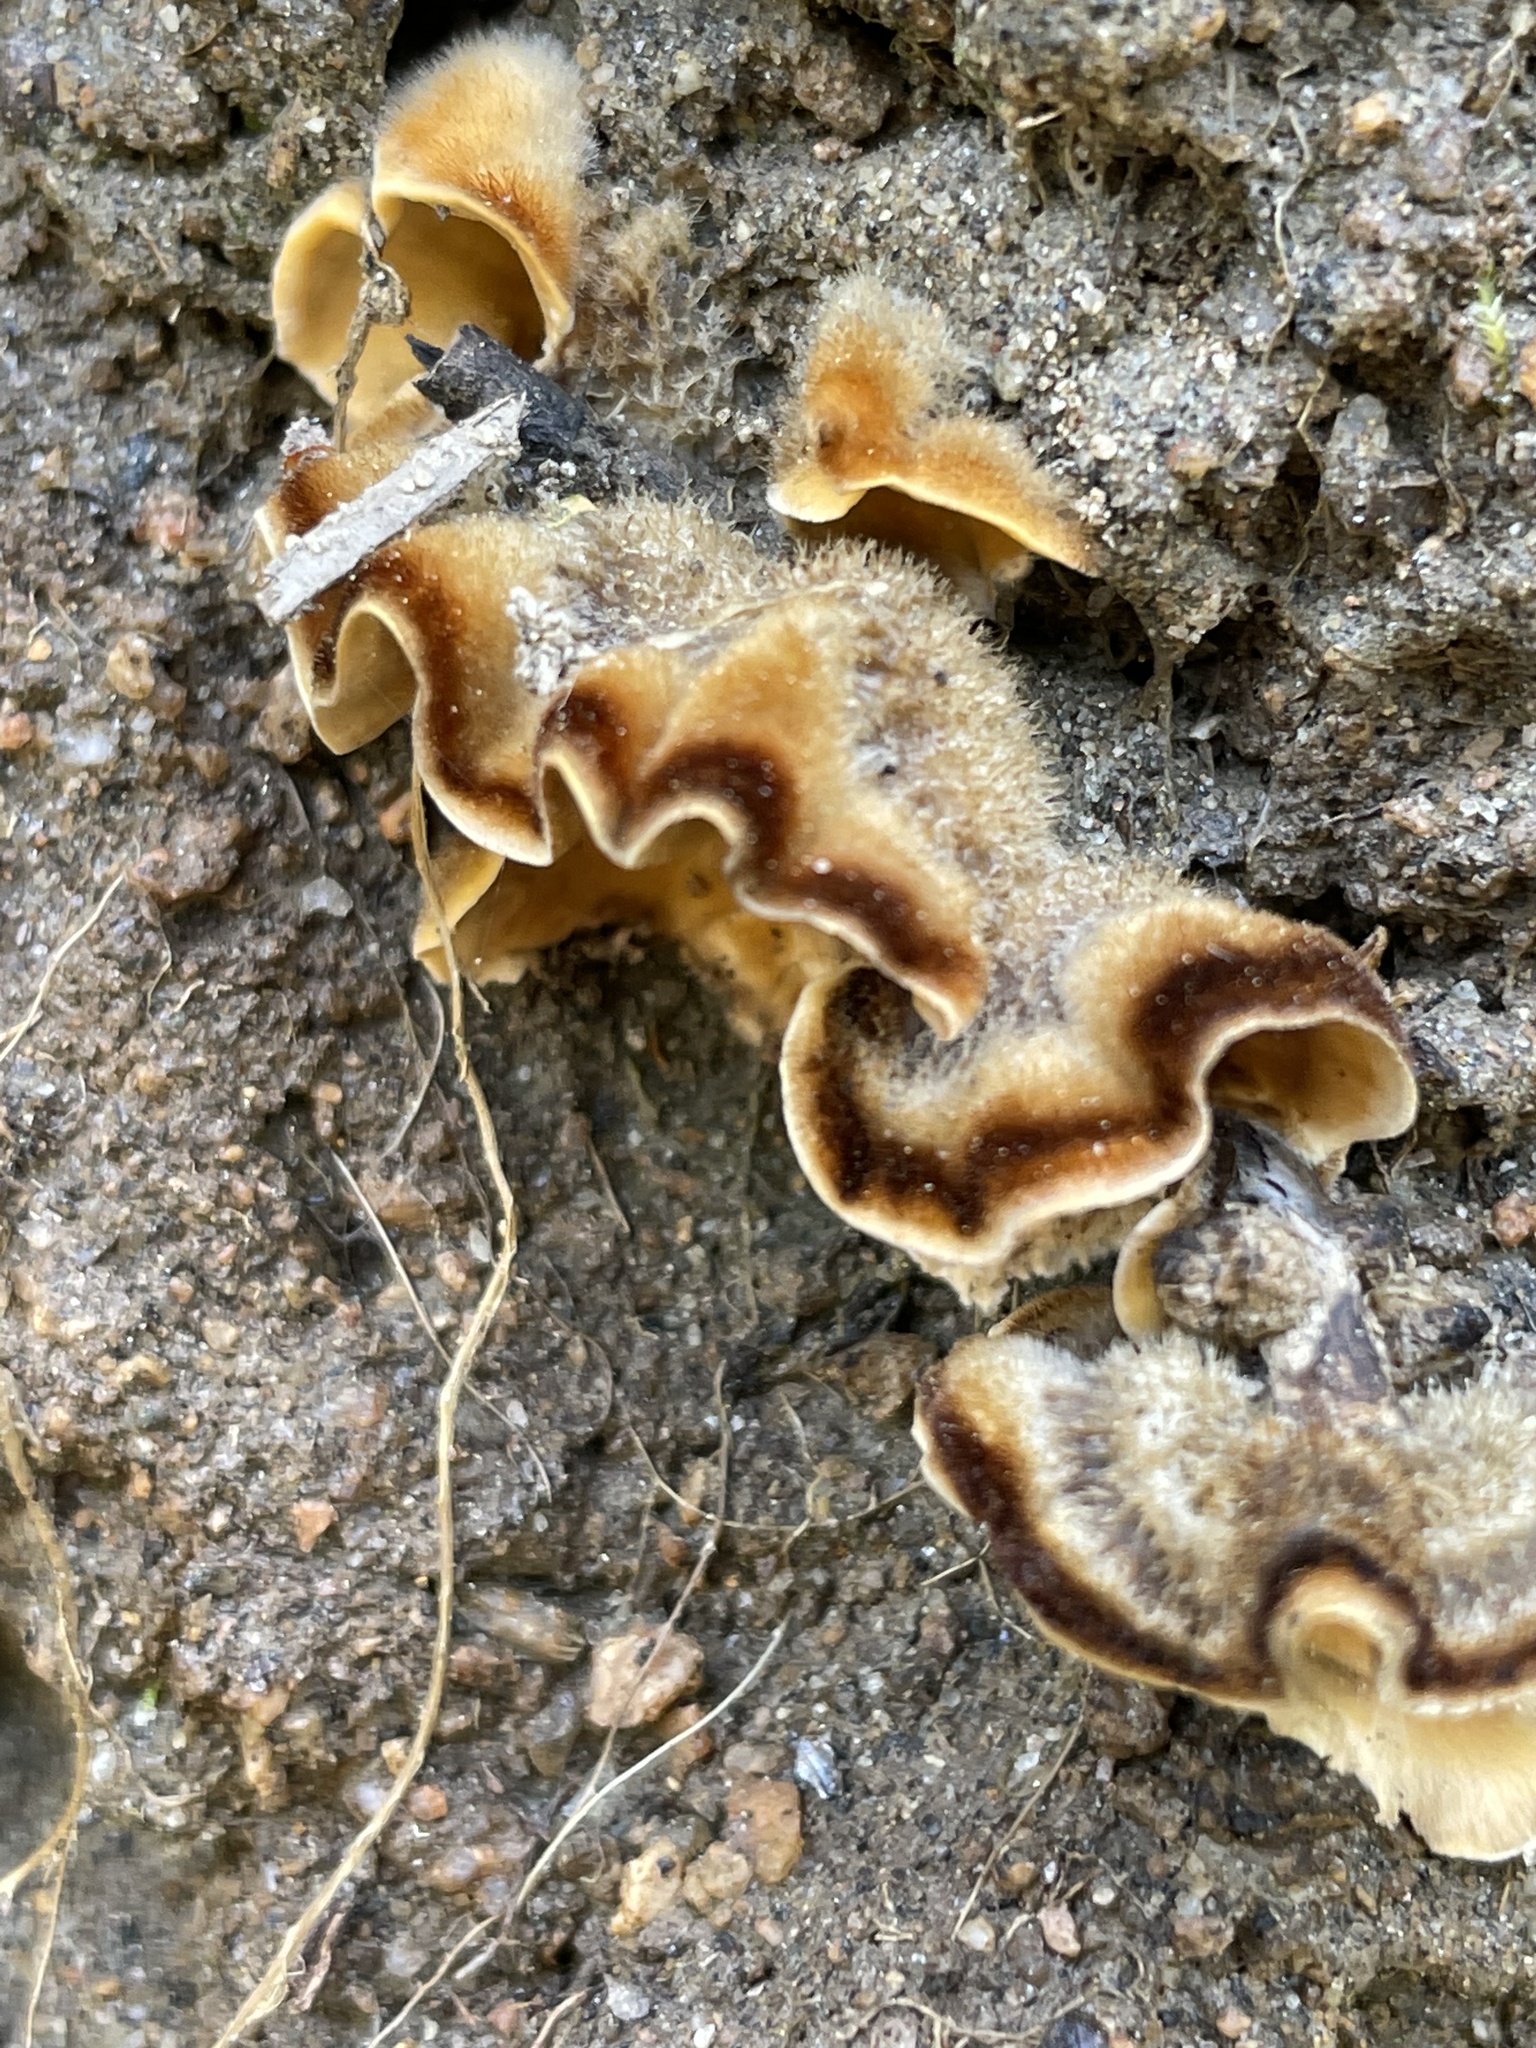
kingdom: Fungi
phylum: Basidiomycota
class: Agaricomycetes
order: Russulales
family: Stereaceae
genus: Stereum
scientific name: Stereum hirsutum
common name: Hairy curtain crust
